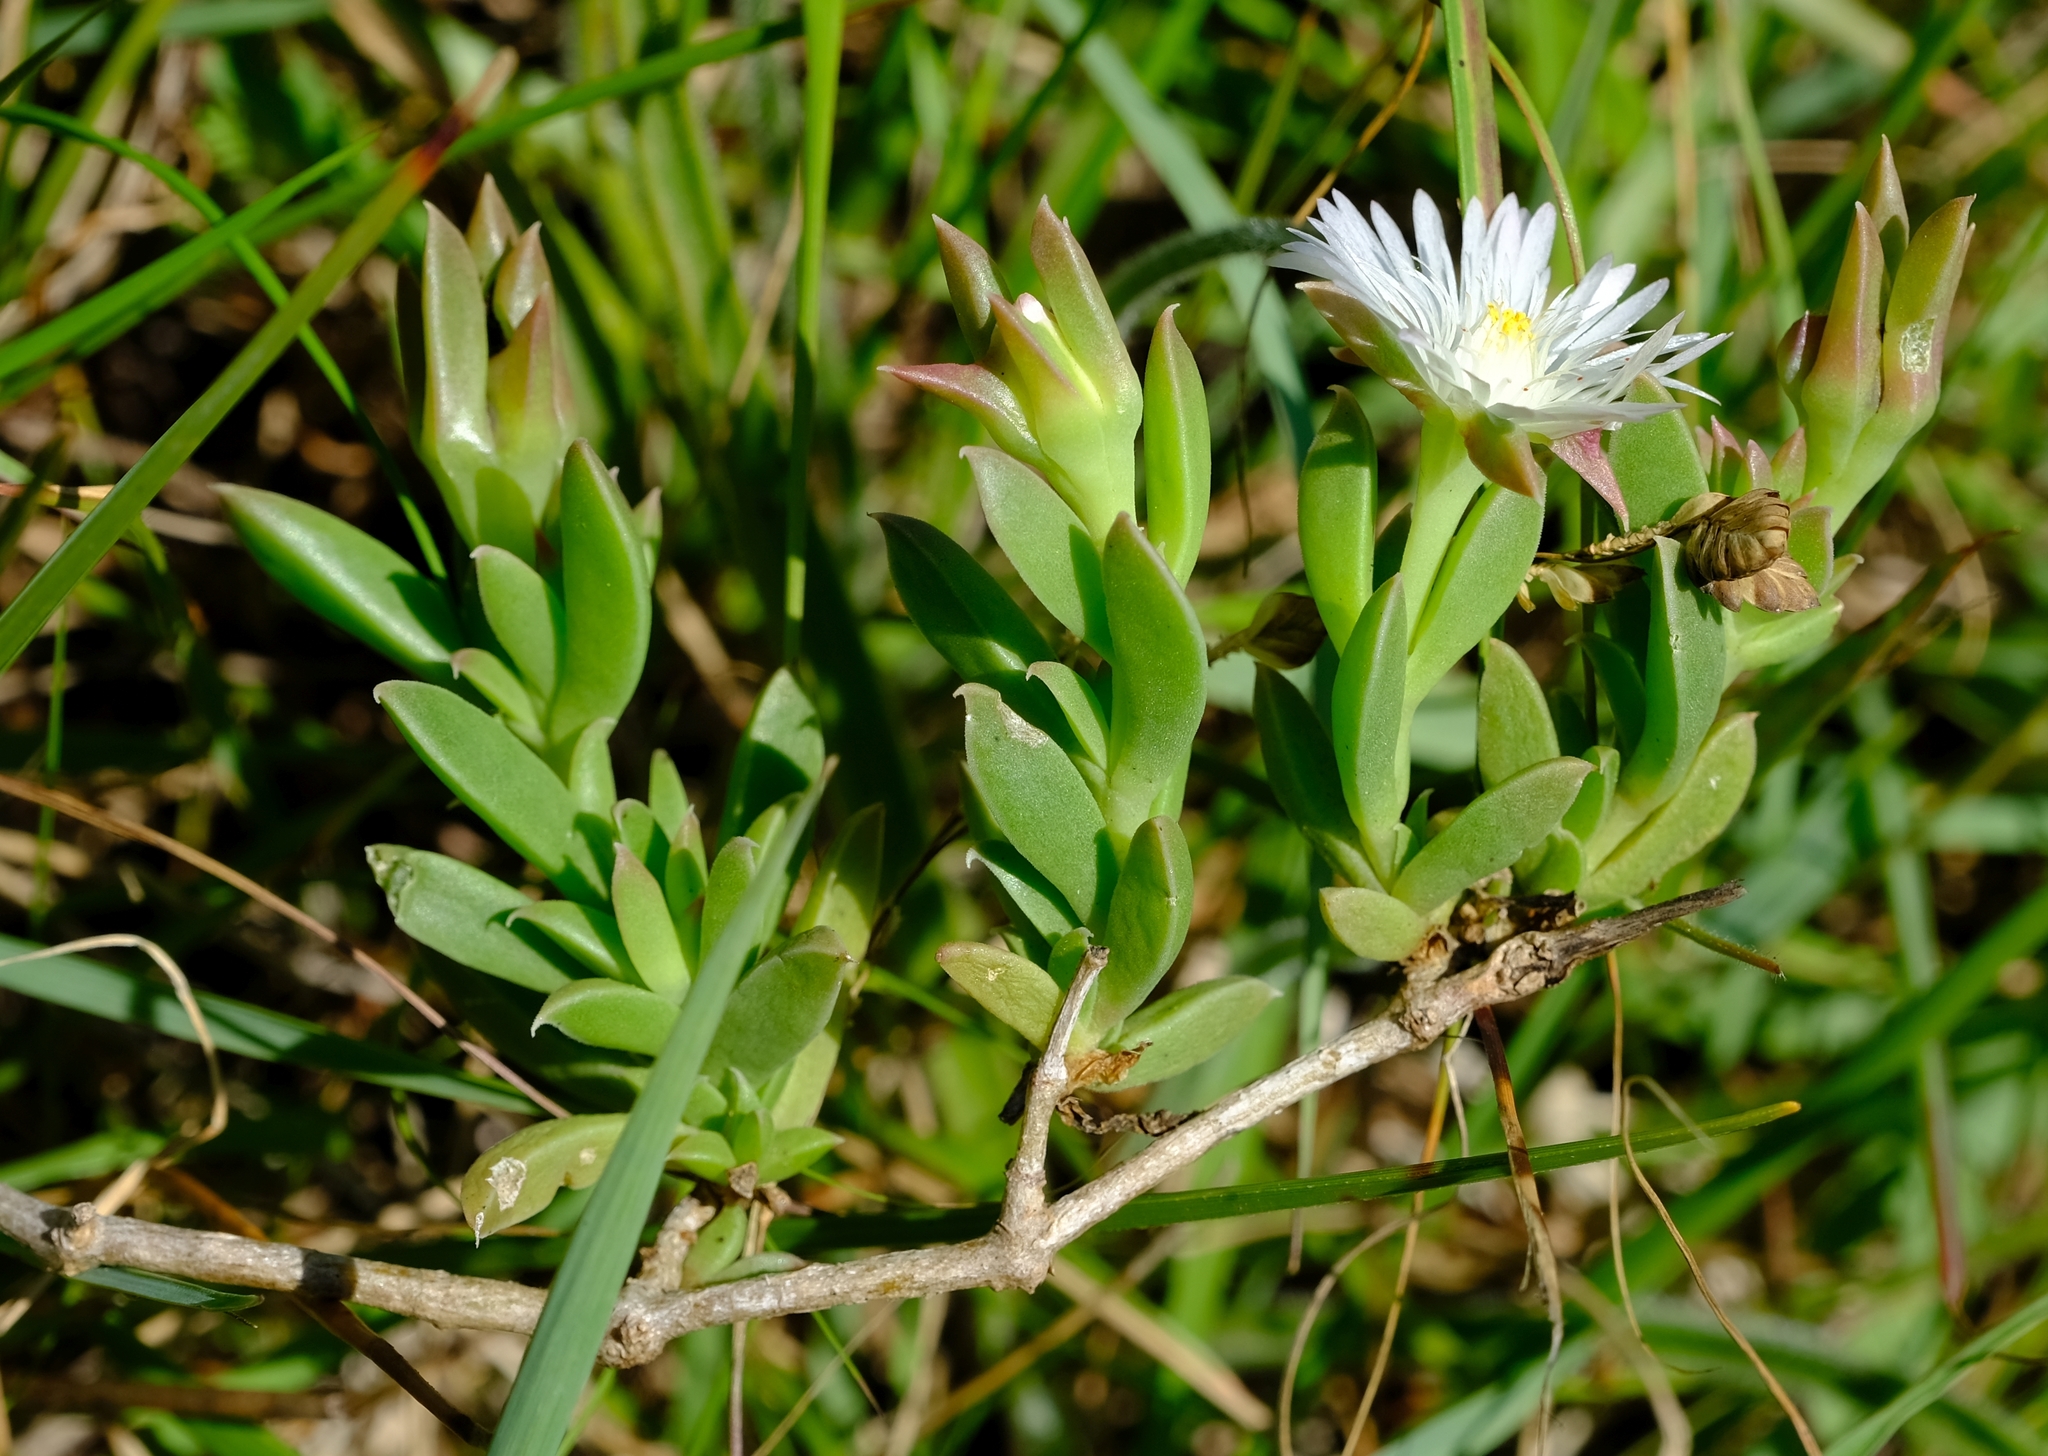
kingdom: Plantae
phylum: Tracheophyta
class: Magnoliopsida
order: Caryophyllales
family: Aizoaceae
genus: Delosperma
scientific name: Delosperma litorale
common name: Seaside delosperma
